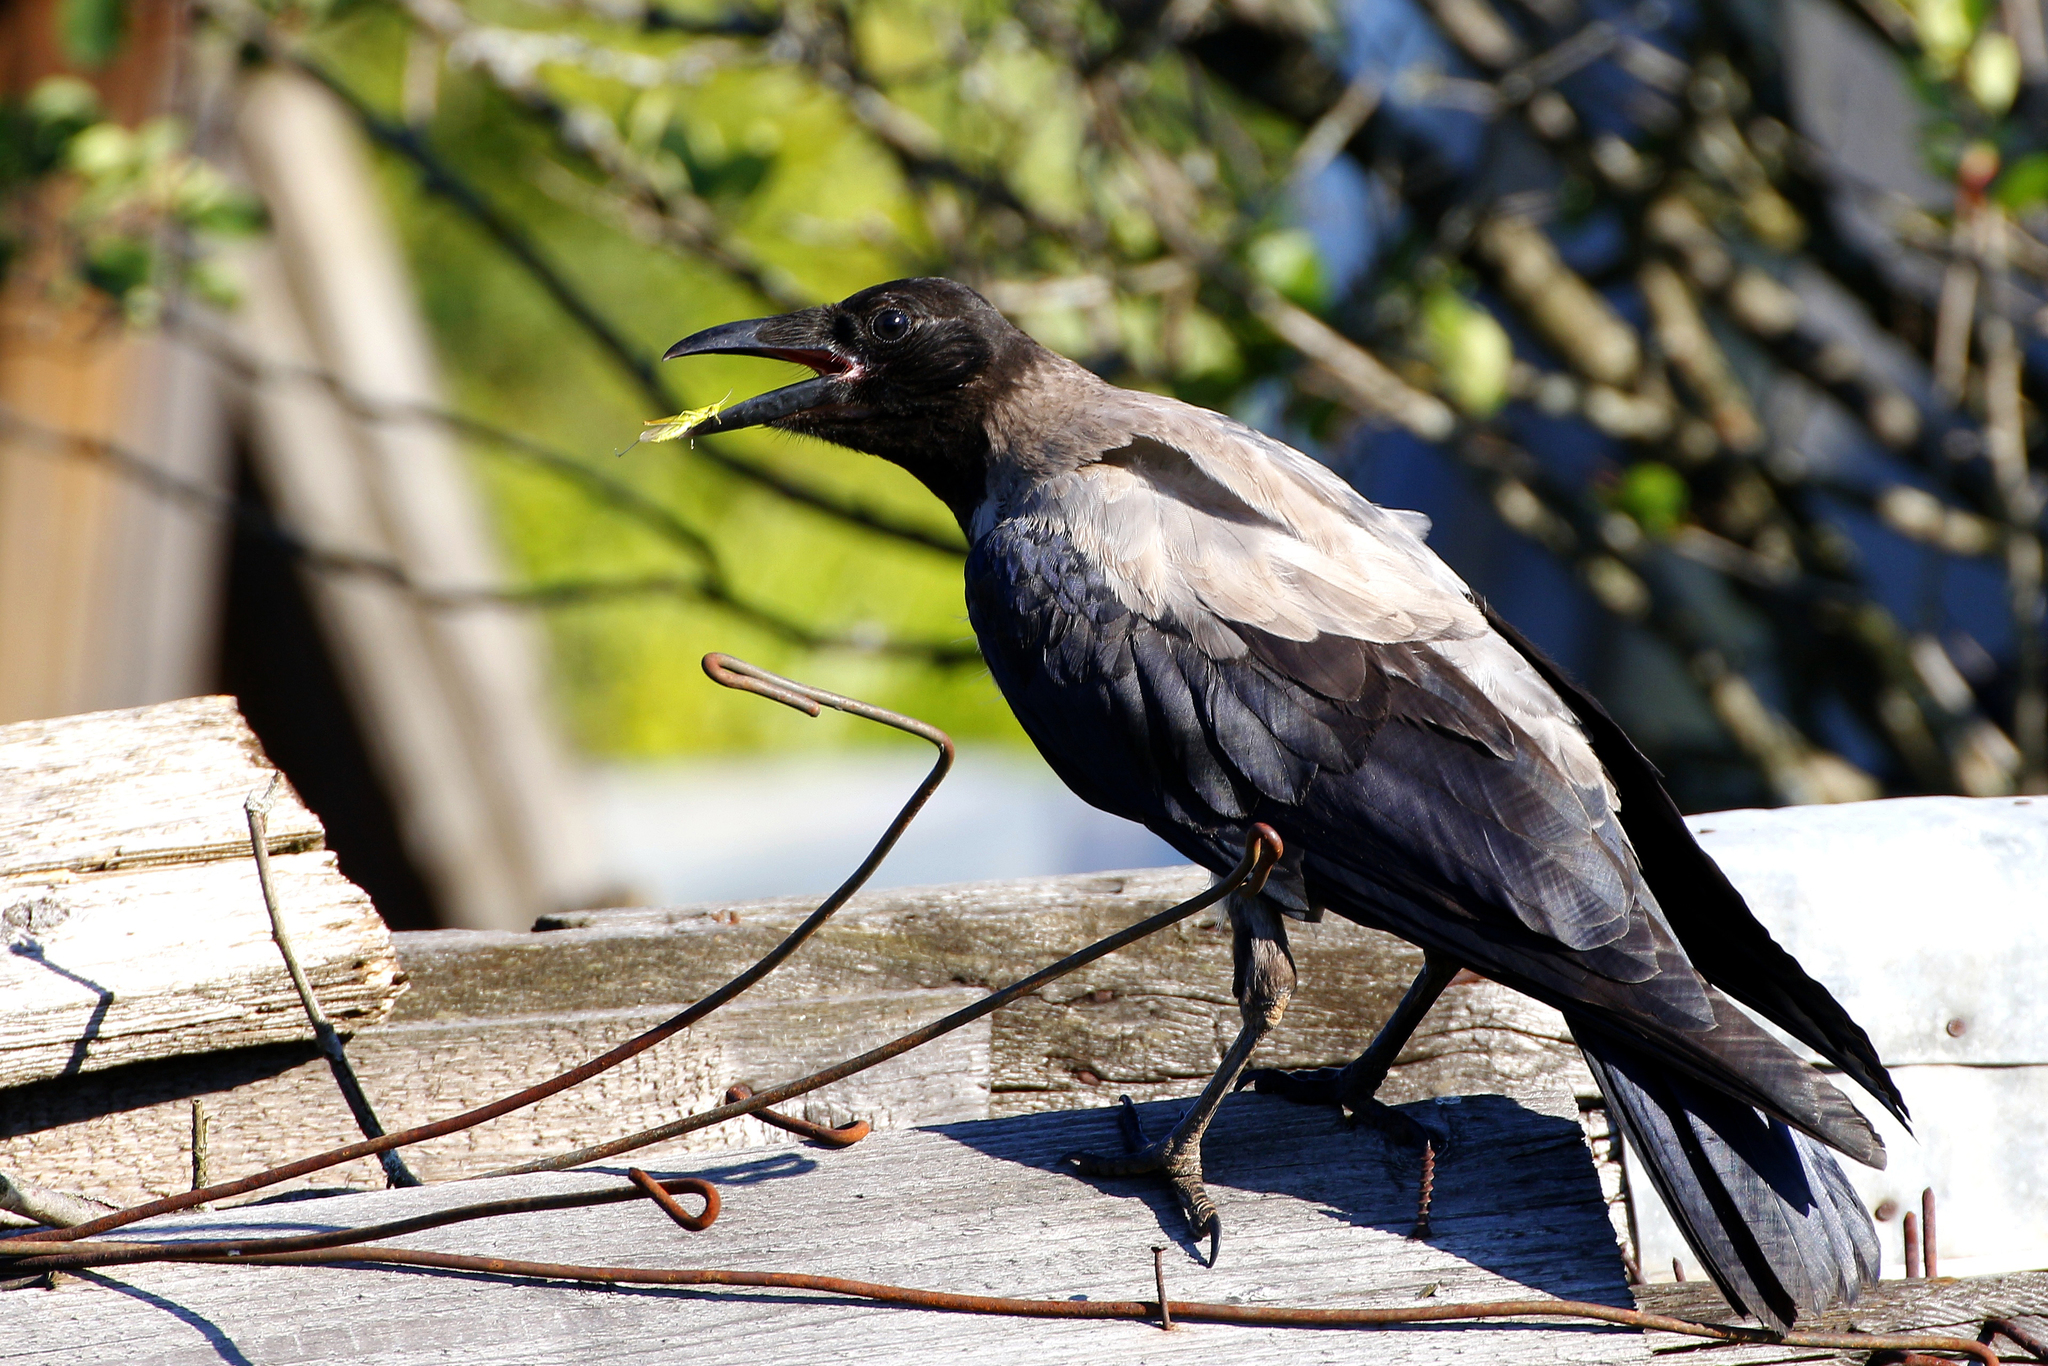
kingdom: Animalia
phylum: Chordata
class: Aves
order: Passeriformes
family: Corvidae
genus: Corvus
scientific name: Corvus cornix
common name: Hooded crow
